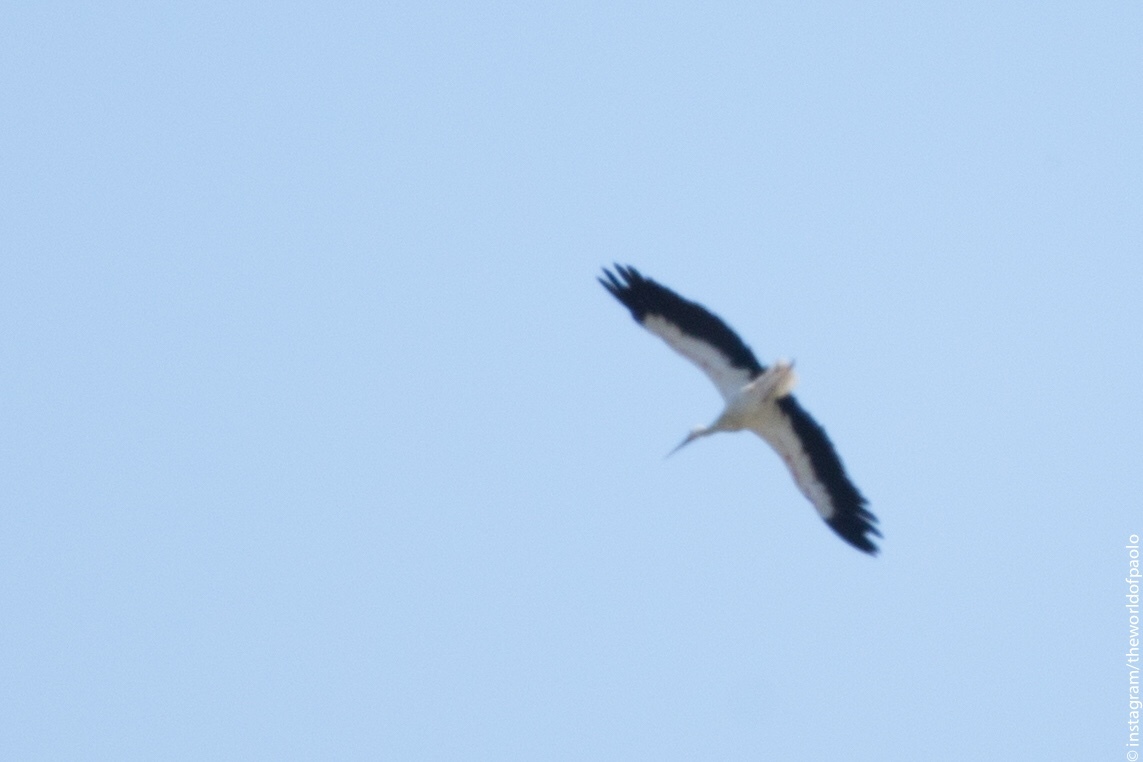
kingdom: Animalia
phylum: Chordata
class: Aves
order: Ciconiiformes
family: Ciconiidae
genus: Ciconia
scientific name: Ciconia ciconia
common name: White stork
